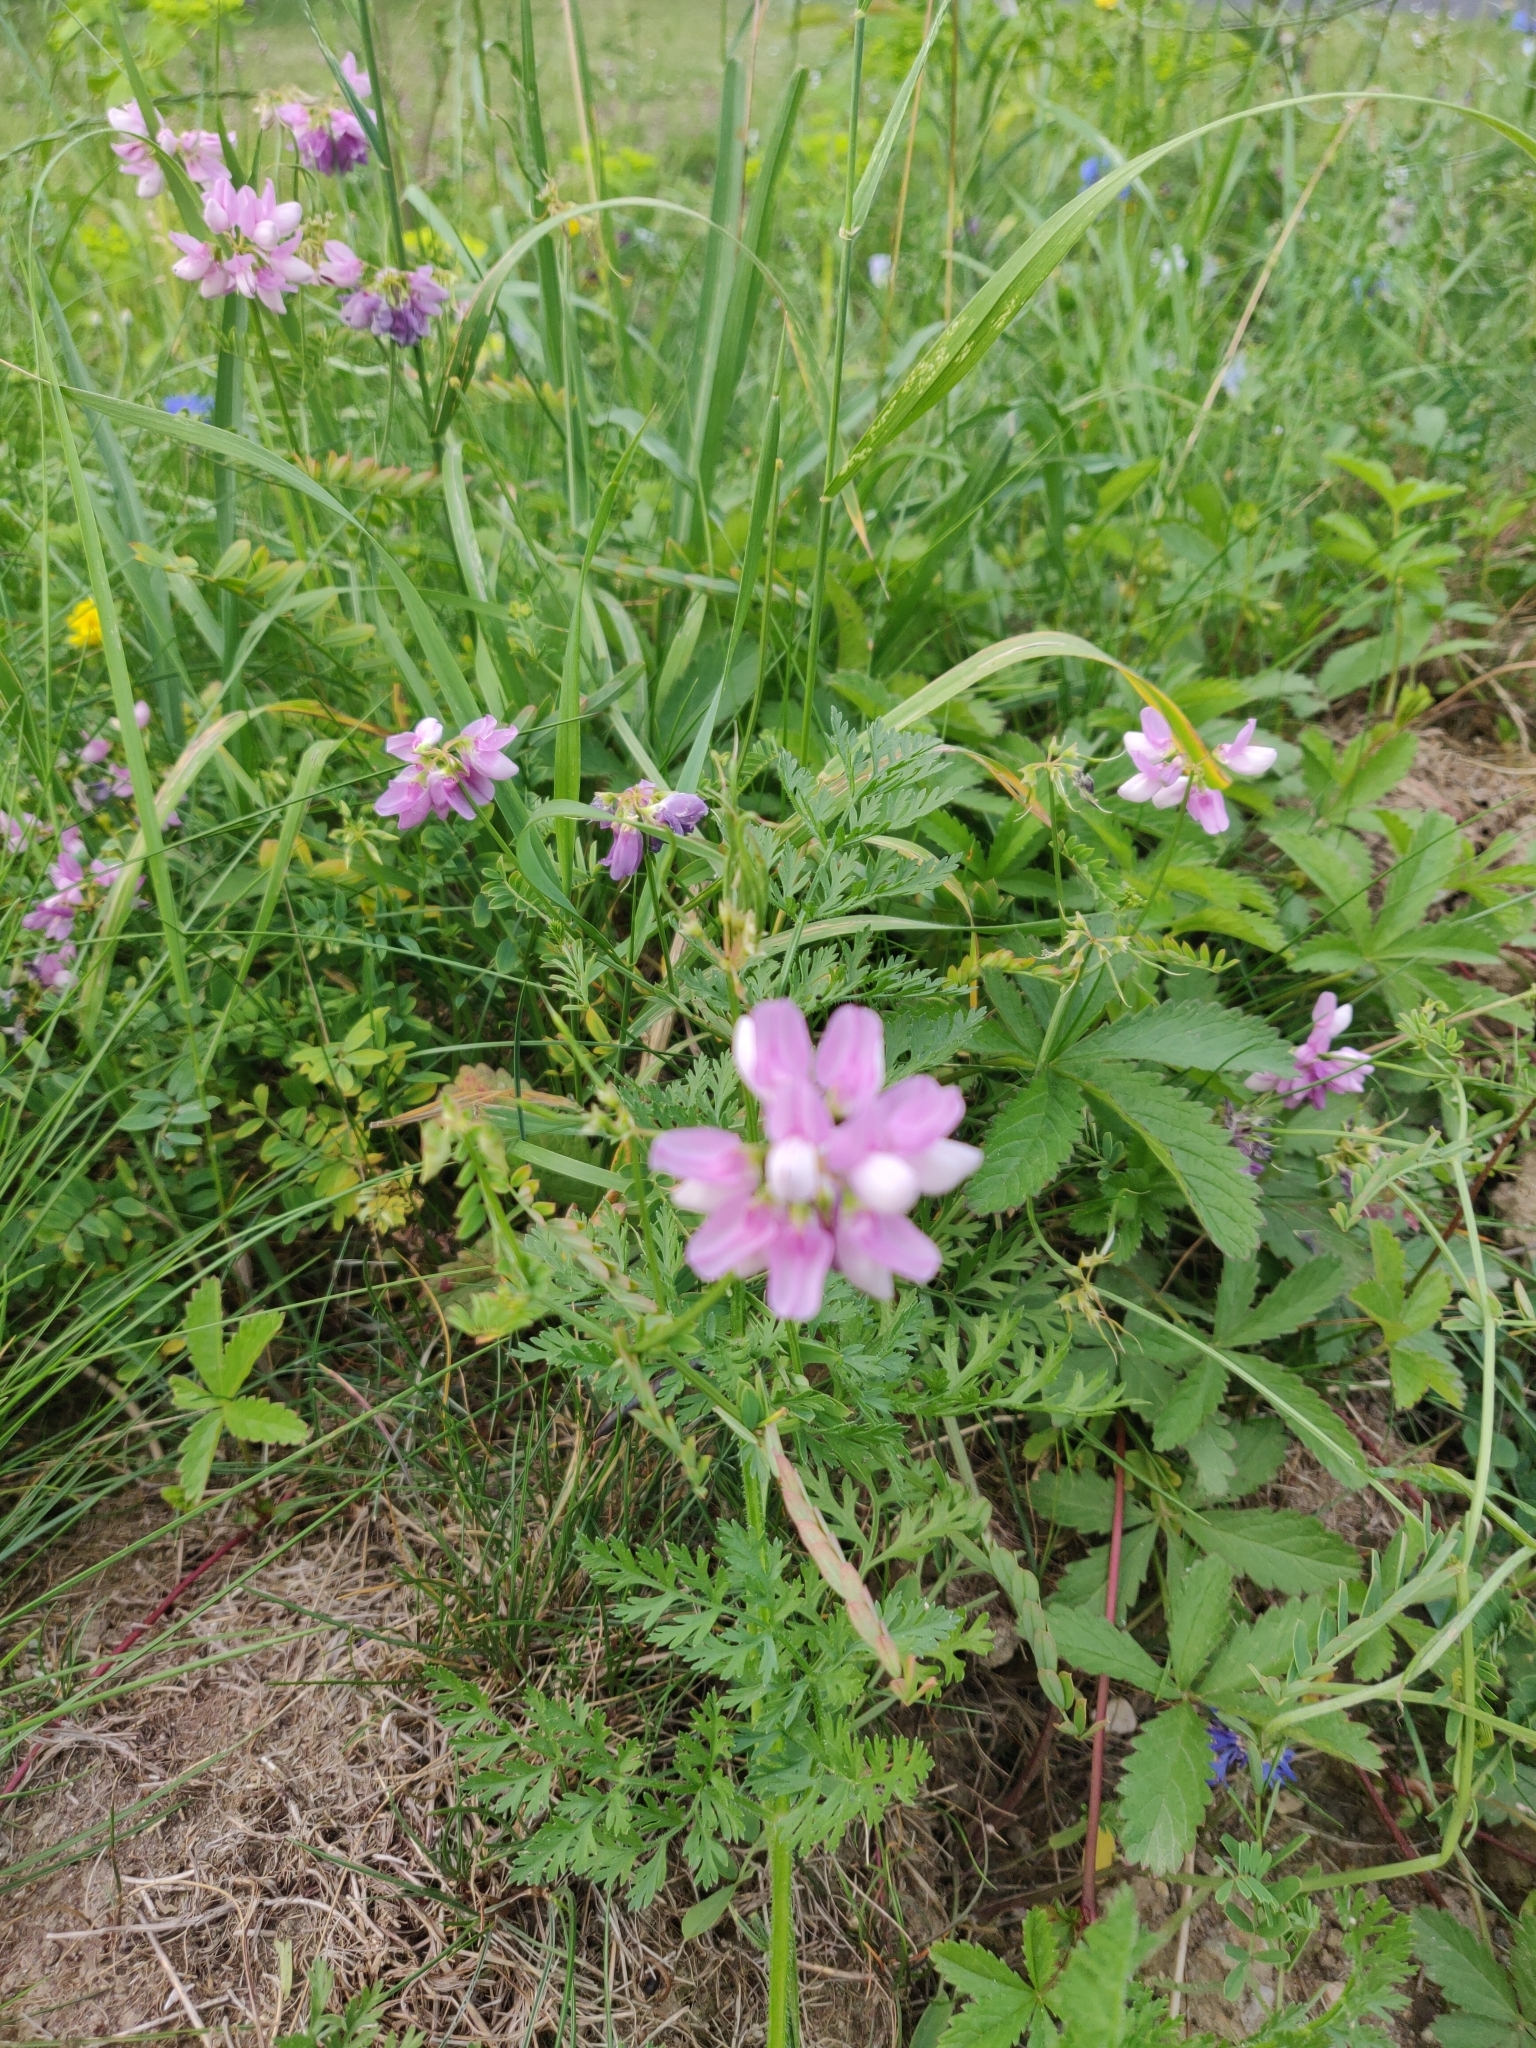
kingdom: Plantae
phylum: Tracheophyta
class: Magnoliopsida
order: Fabales
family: Fabaceae
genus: Coronilla
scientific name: Coronilla varia
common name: Crownvetch
